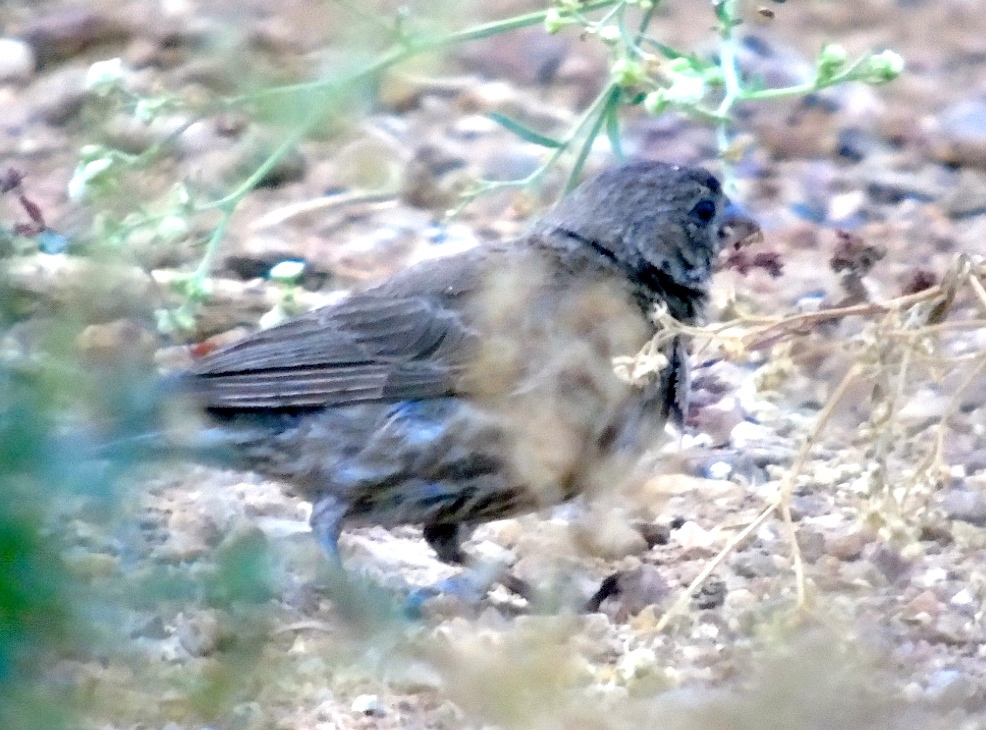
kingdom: Animalia
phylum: Chordata
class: Aves
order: Passeriformes
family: Thraupidae
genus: Volatinia
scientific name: Volatinia jacarina
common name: Blue-black grassquit
